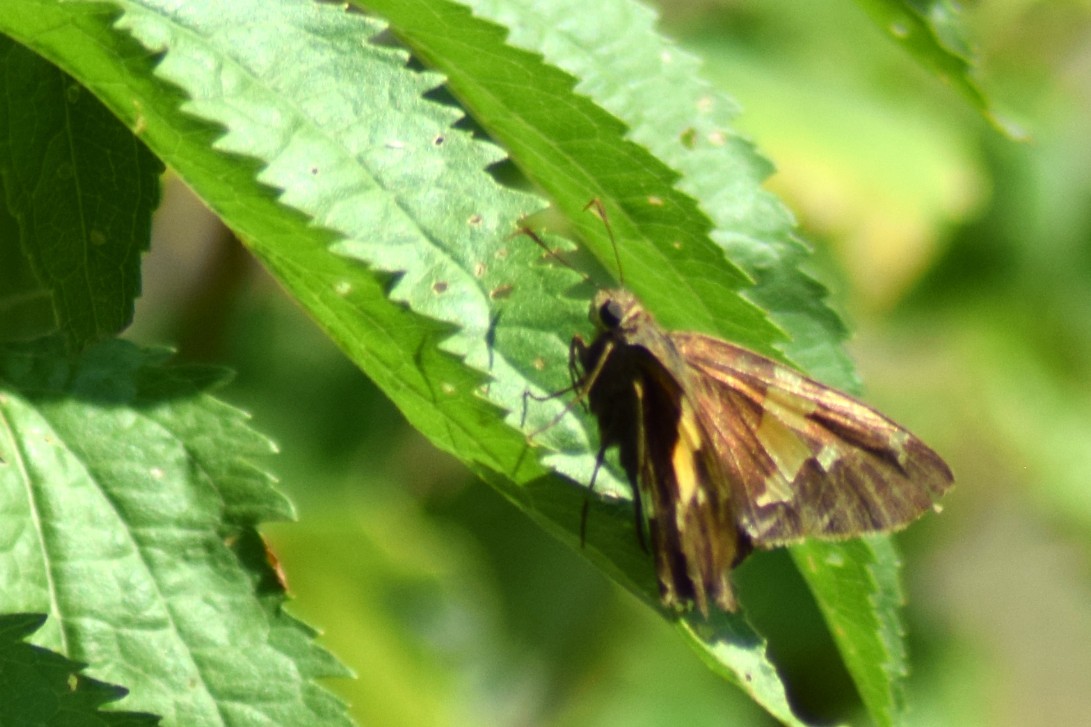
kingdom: Animalia
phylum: Arthropoda
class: Insecta
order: Lepidoptera
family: Hesperiidae
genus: Epargyreus
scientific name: Epargyreus clarus
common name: Silver-spotted skipper
